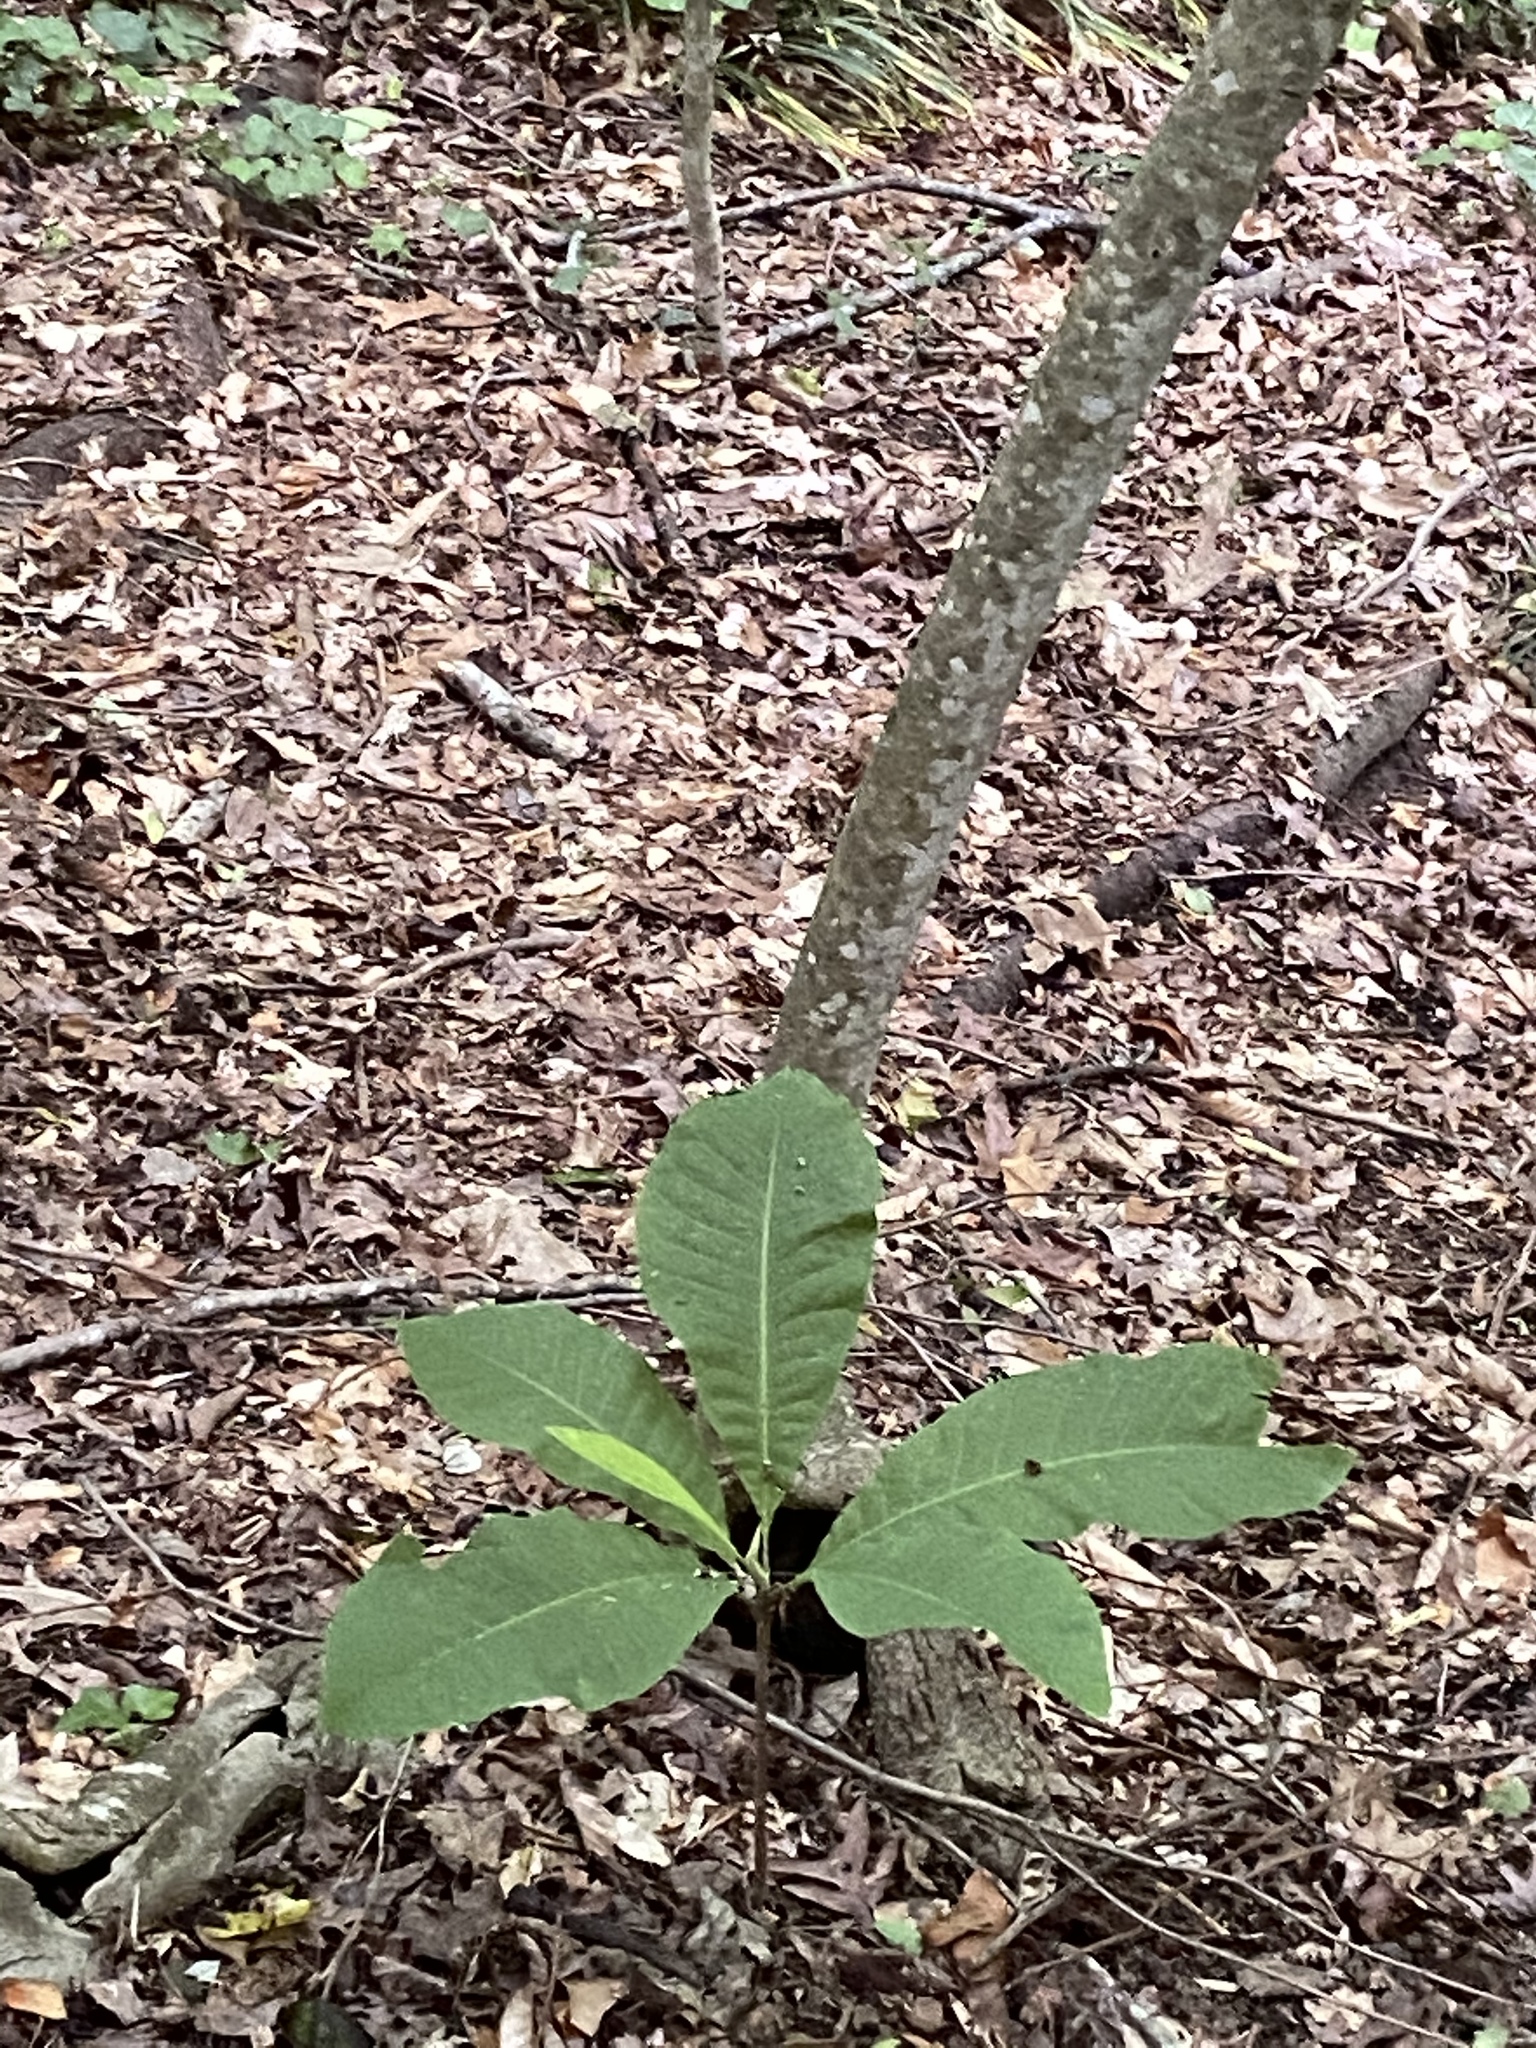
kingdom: Plantae
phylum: Tracheophyta
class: Magnoliopsida
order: Magnoliales
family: Magnoliaceae
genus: Magnolia
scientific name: Magnolia tripetala
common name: Umbrella magnolia
